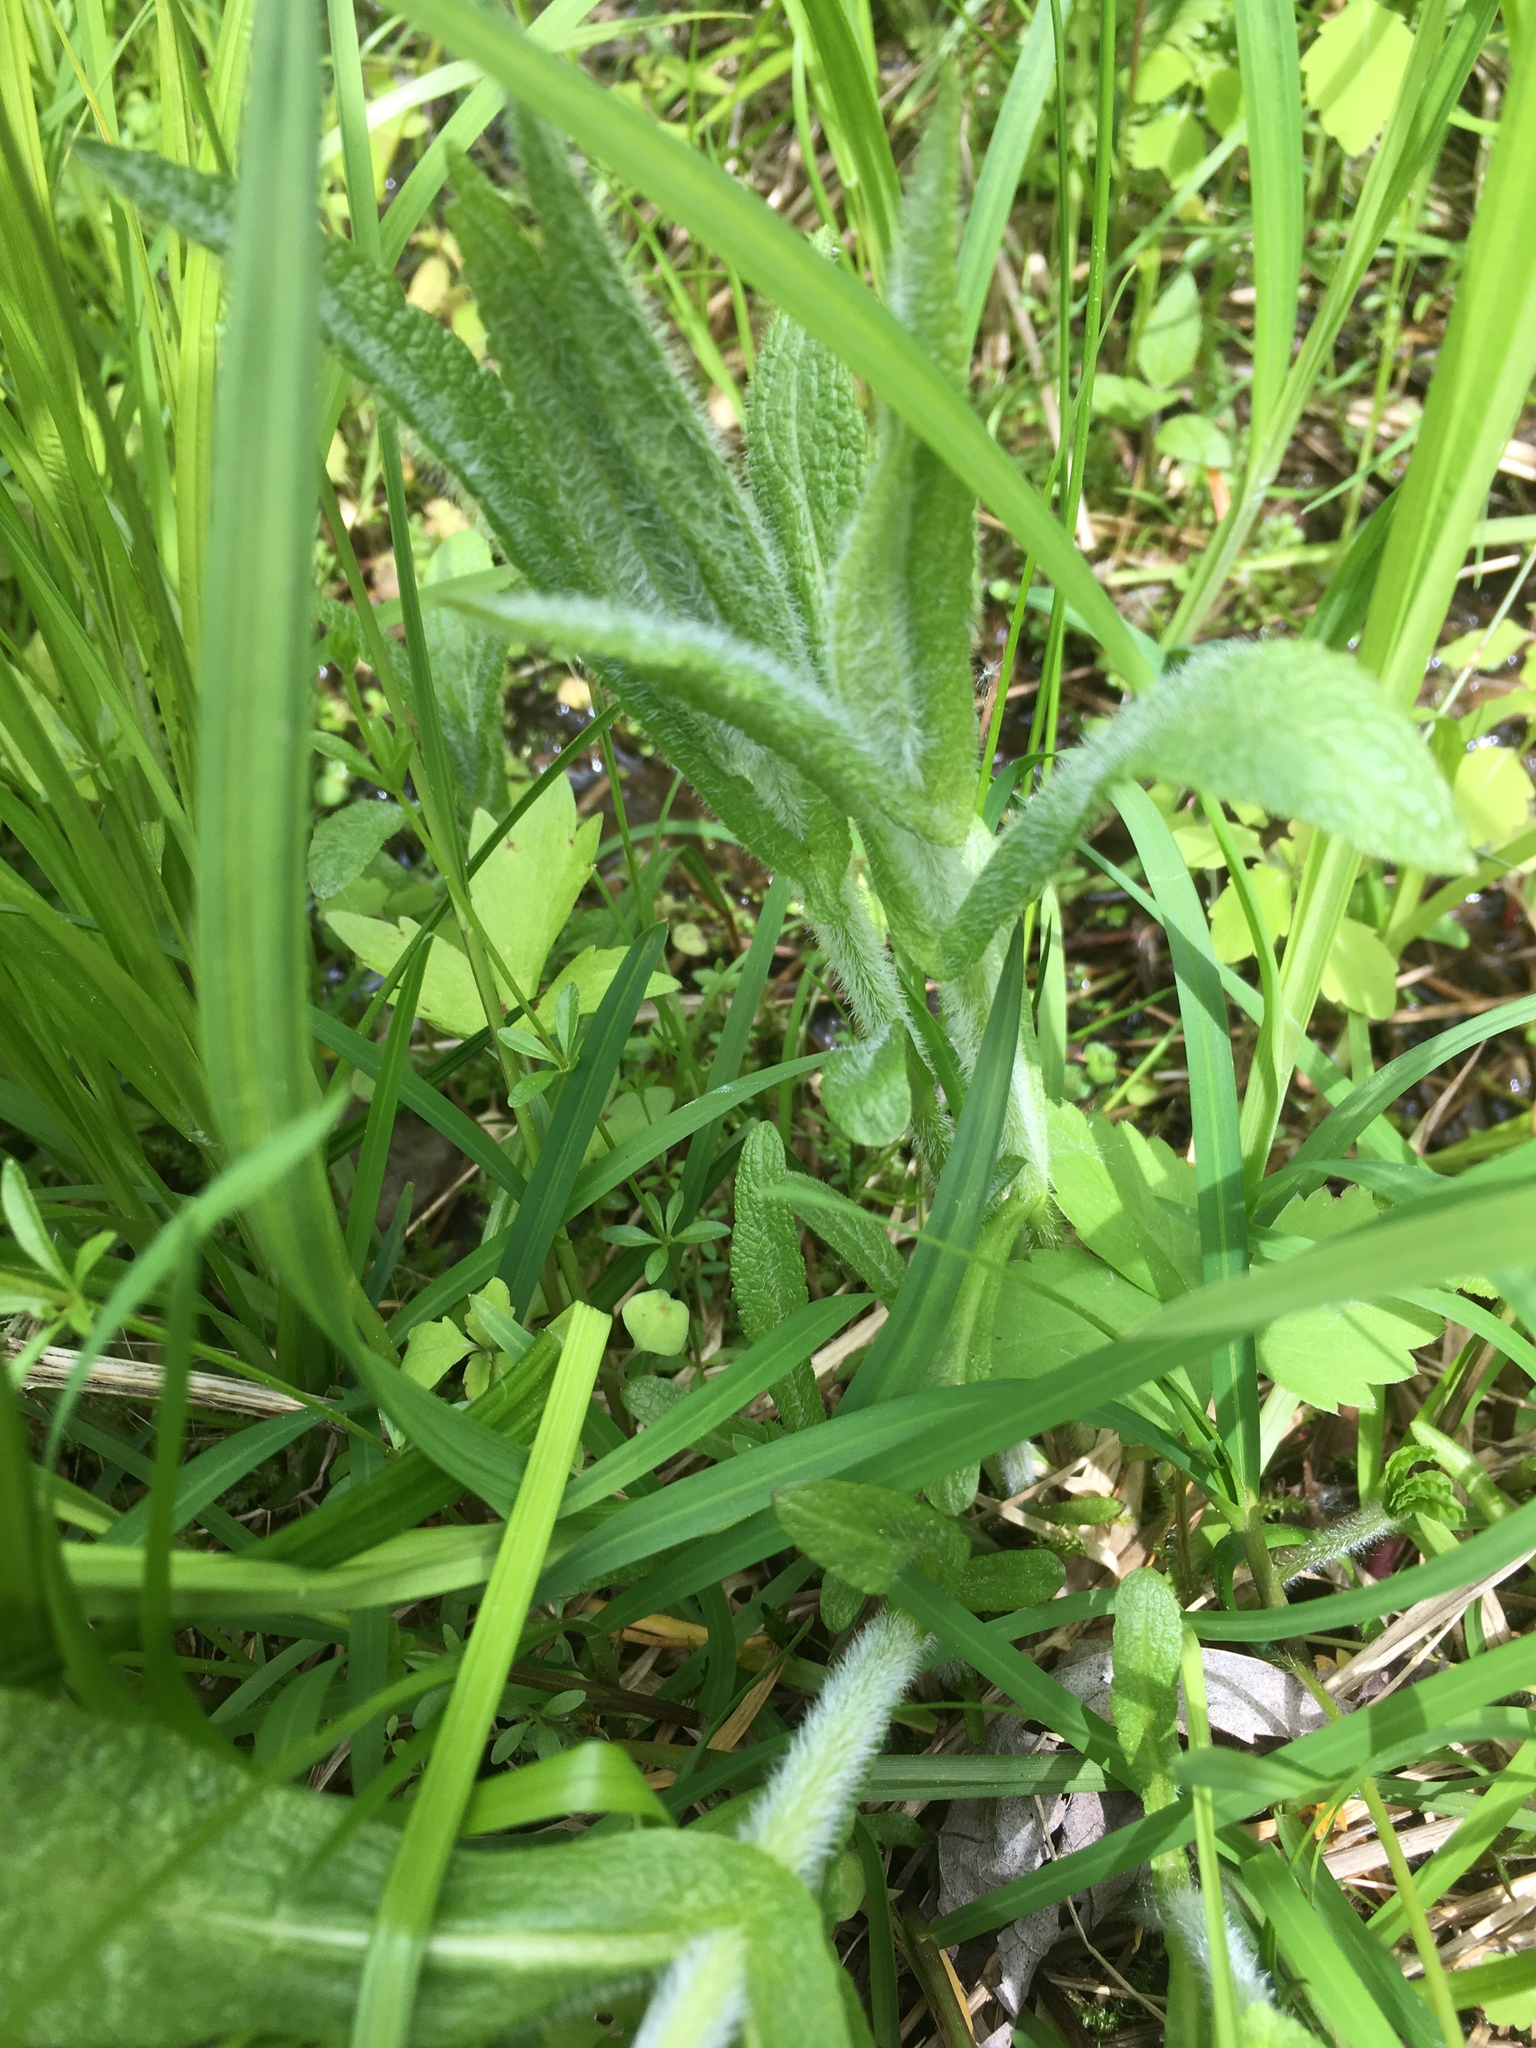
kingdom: Plantae
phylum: Tracheophyta
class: Magnoliopsida
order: Asterales
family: Asteraceae
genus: Eupatorium
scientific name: Eupatorium perfoliatum
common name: Boneset
